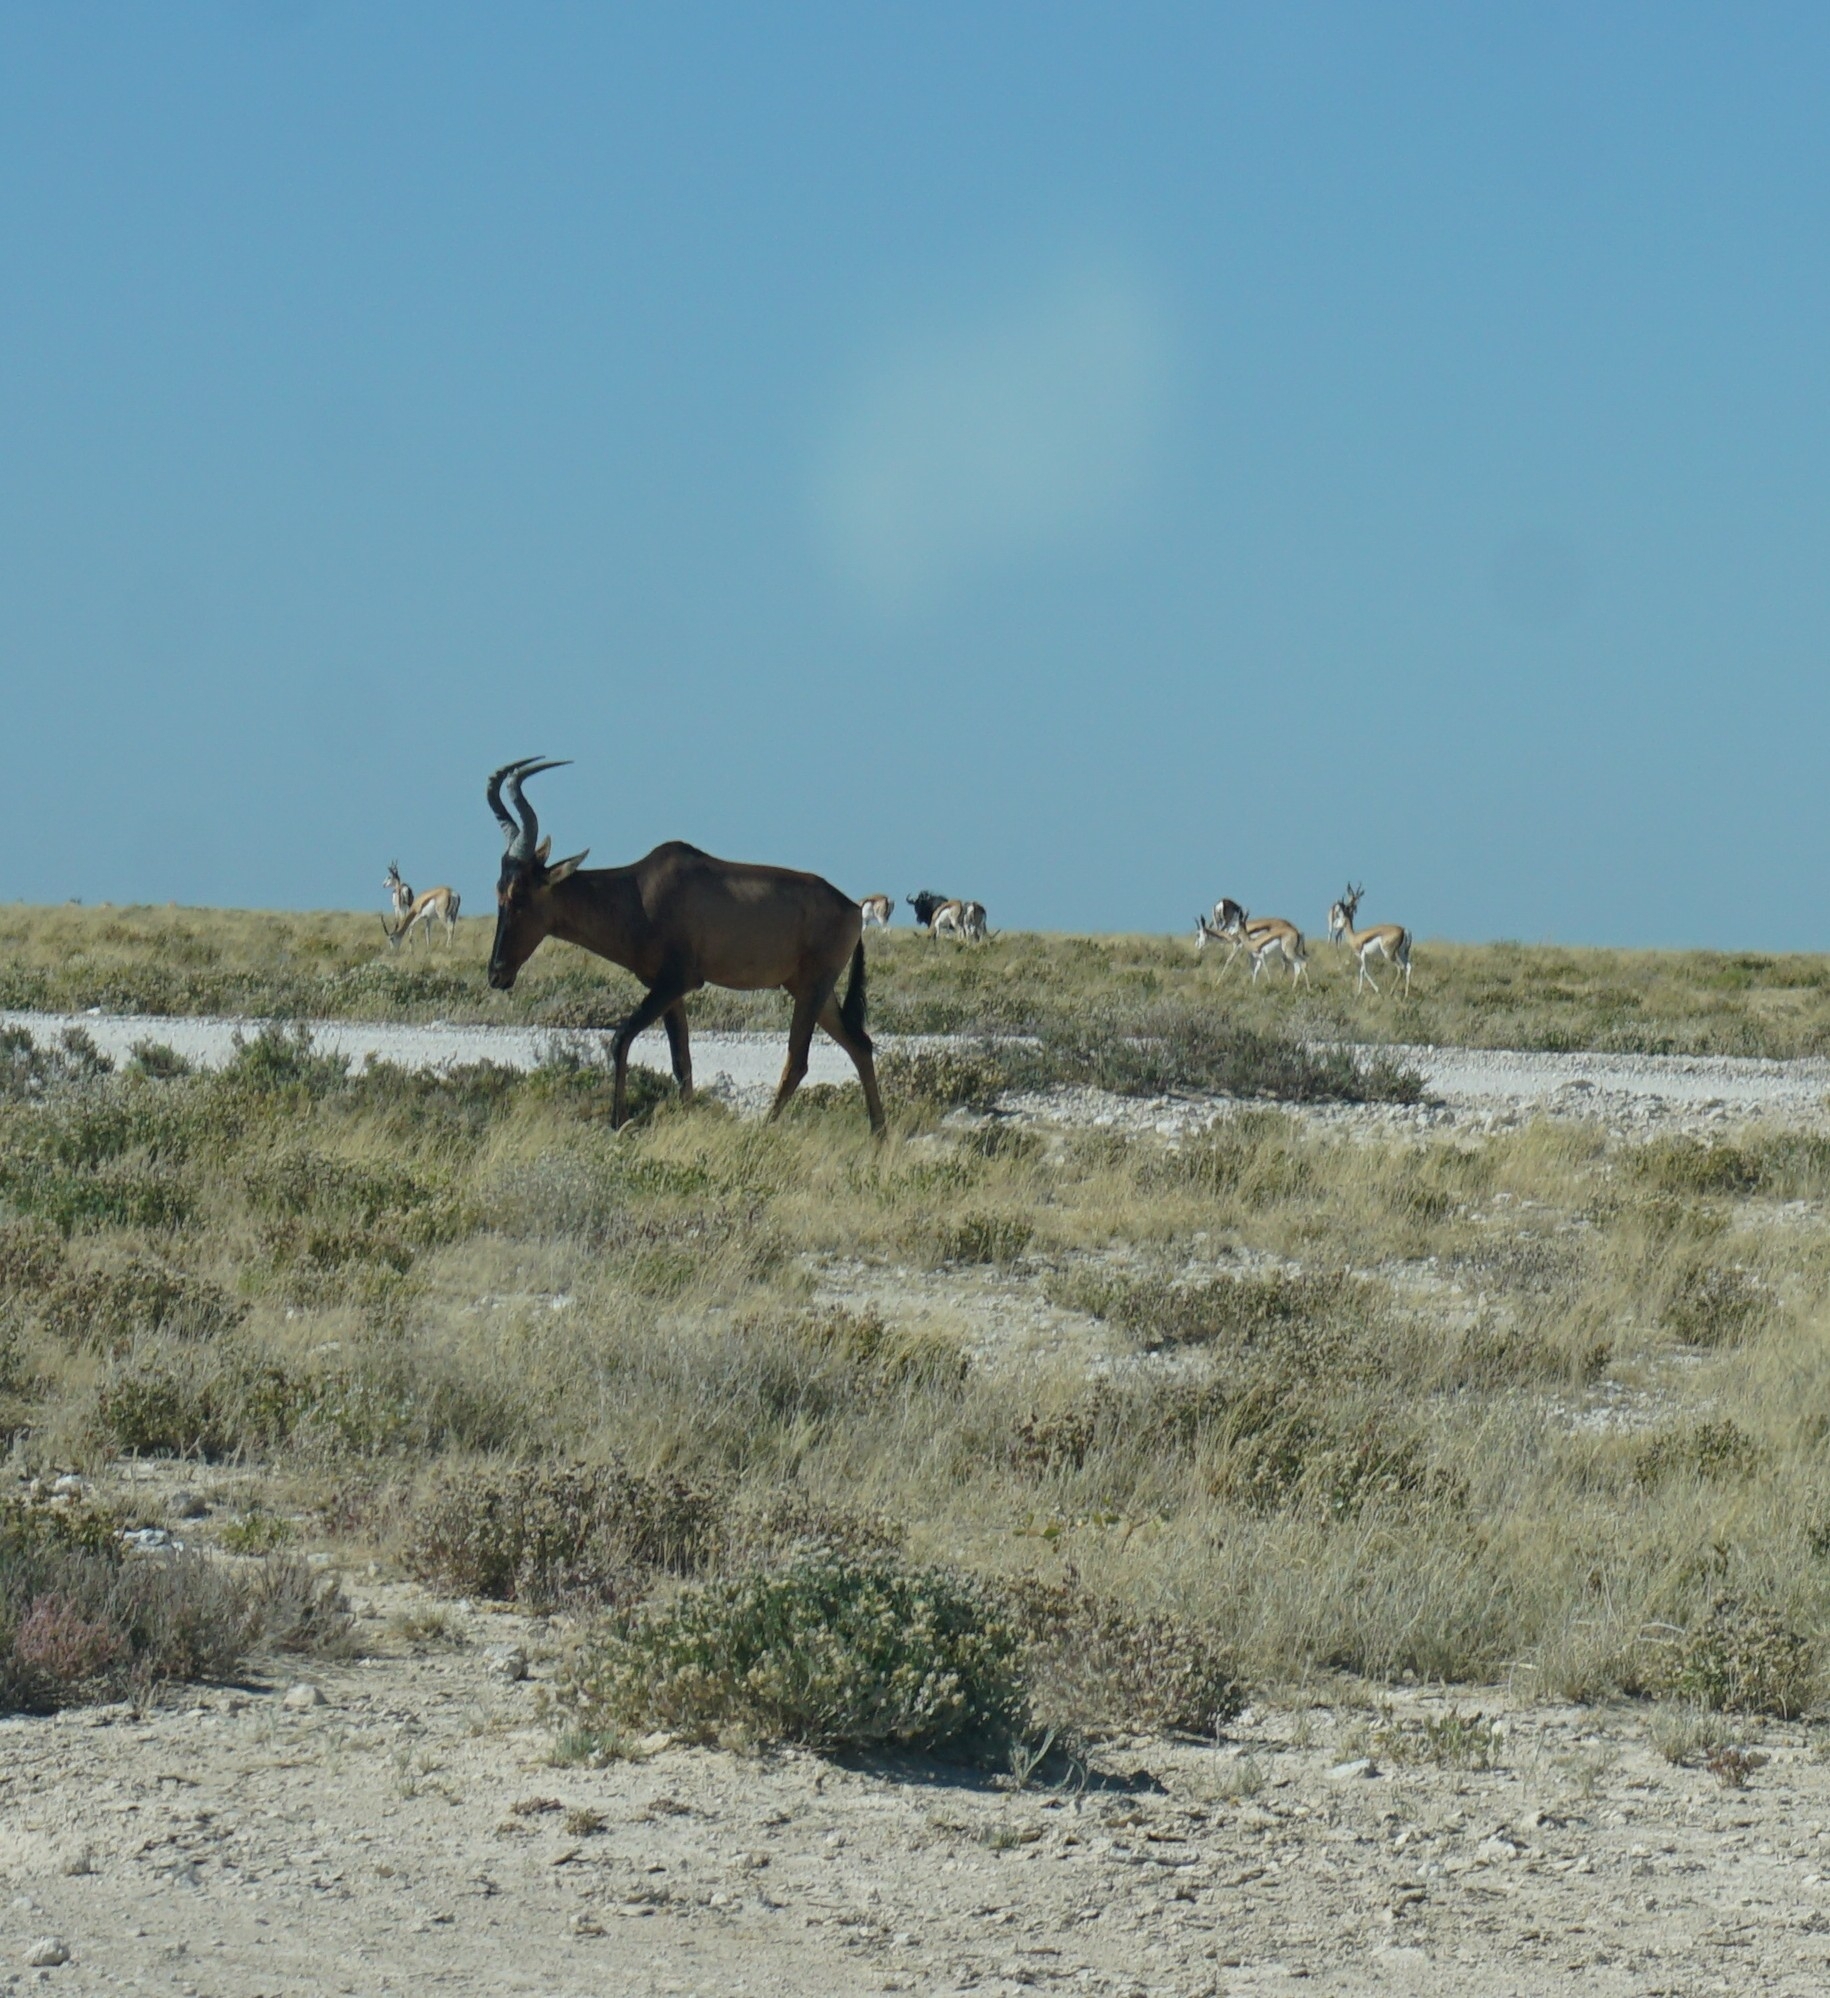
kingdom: Animalia
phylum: Chordata
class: Mammalia
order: Artiodactyla
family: Bovidae
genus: Alcelaphus
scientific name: Alcelaphus caama
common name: Red hartebeest
